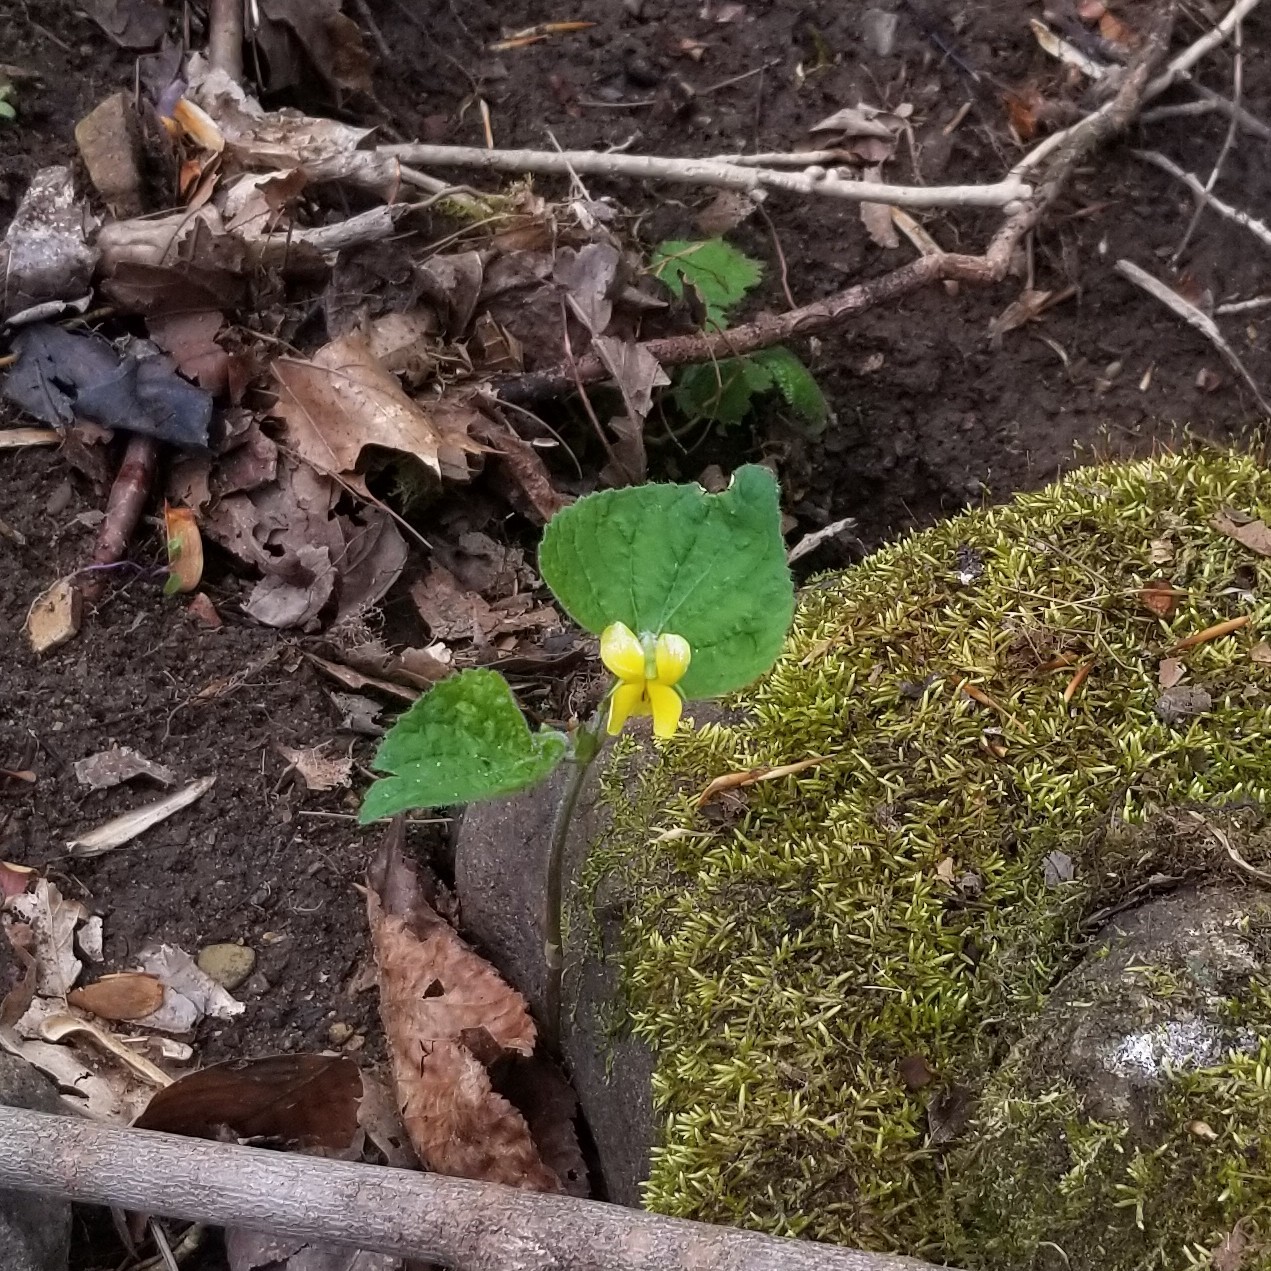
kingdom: Plantae
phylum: Tracheophyta
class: Magnoliopsida
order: Malpighiales
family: Violaceae
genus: Viola
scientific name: Viola pubescens
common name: Yellow forest violet
